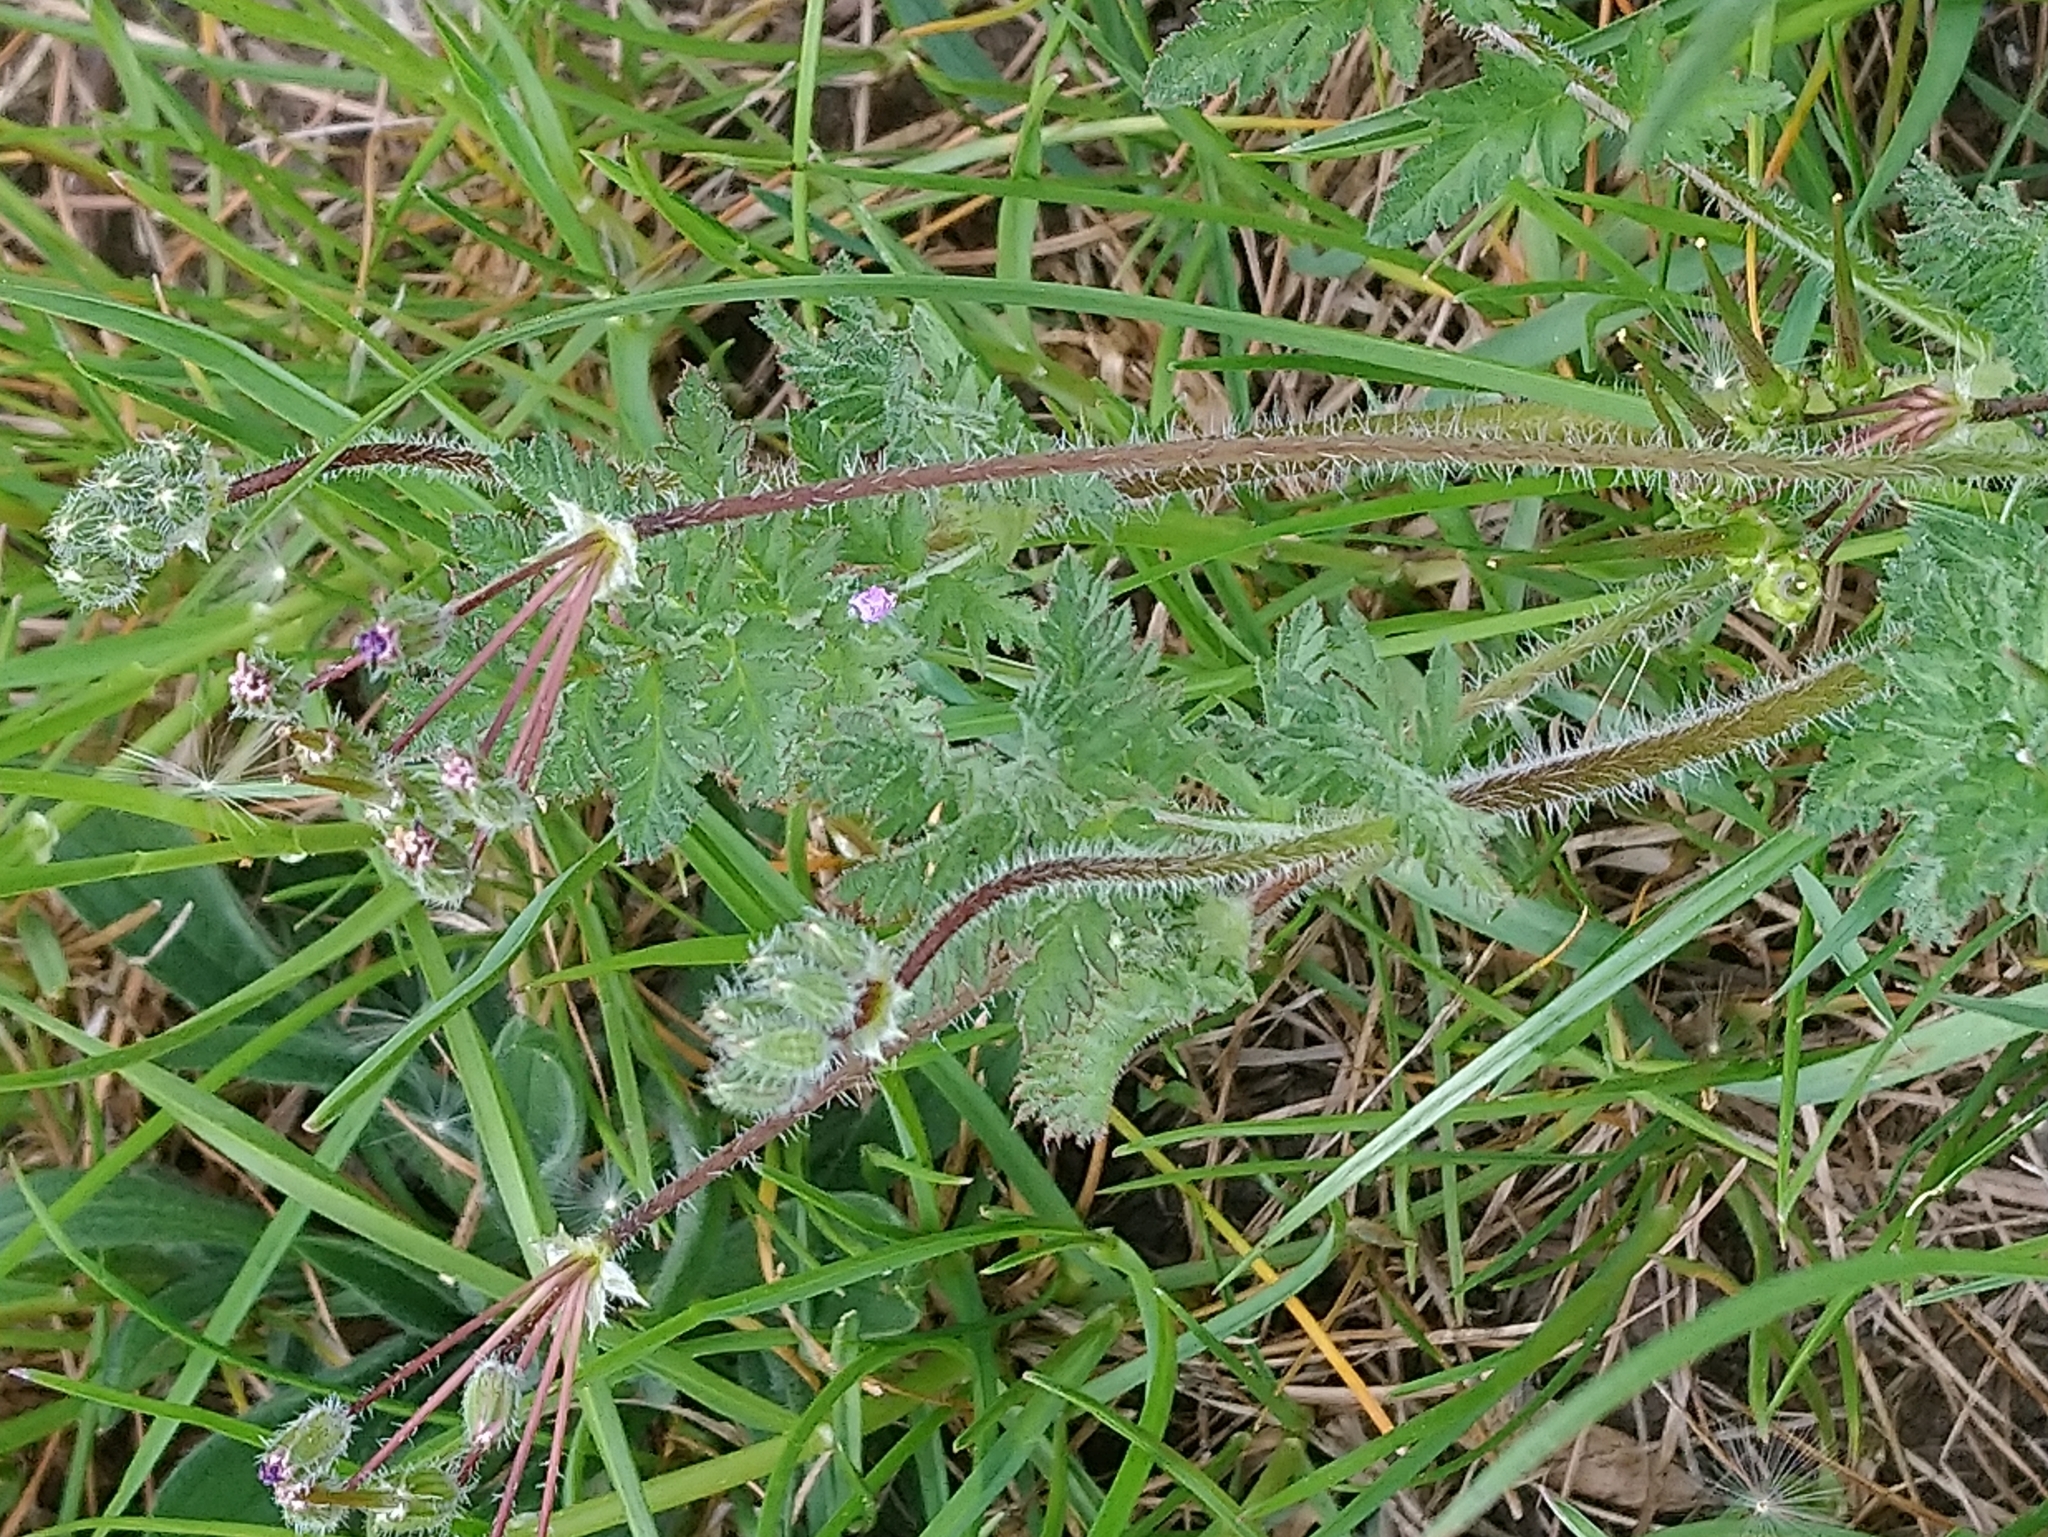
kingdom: Plantae
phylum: Tracheophyta
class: Magnoliopsida
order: Geraniales
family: Geraniaceae
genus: Erodium
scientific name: Erodium cicutarium
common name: Common stork's-bill
